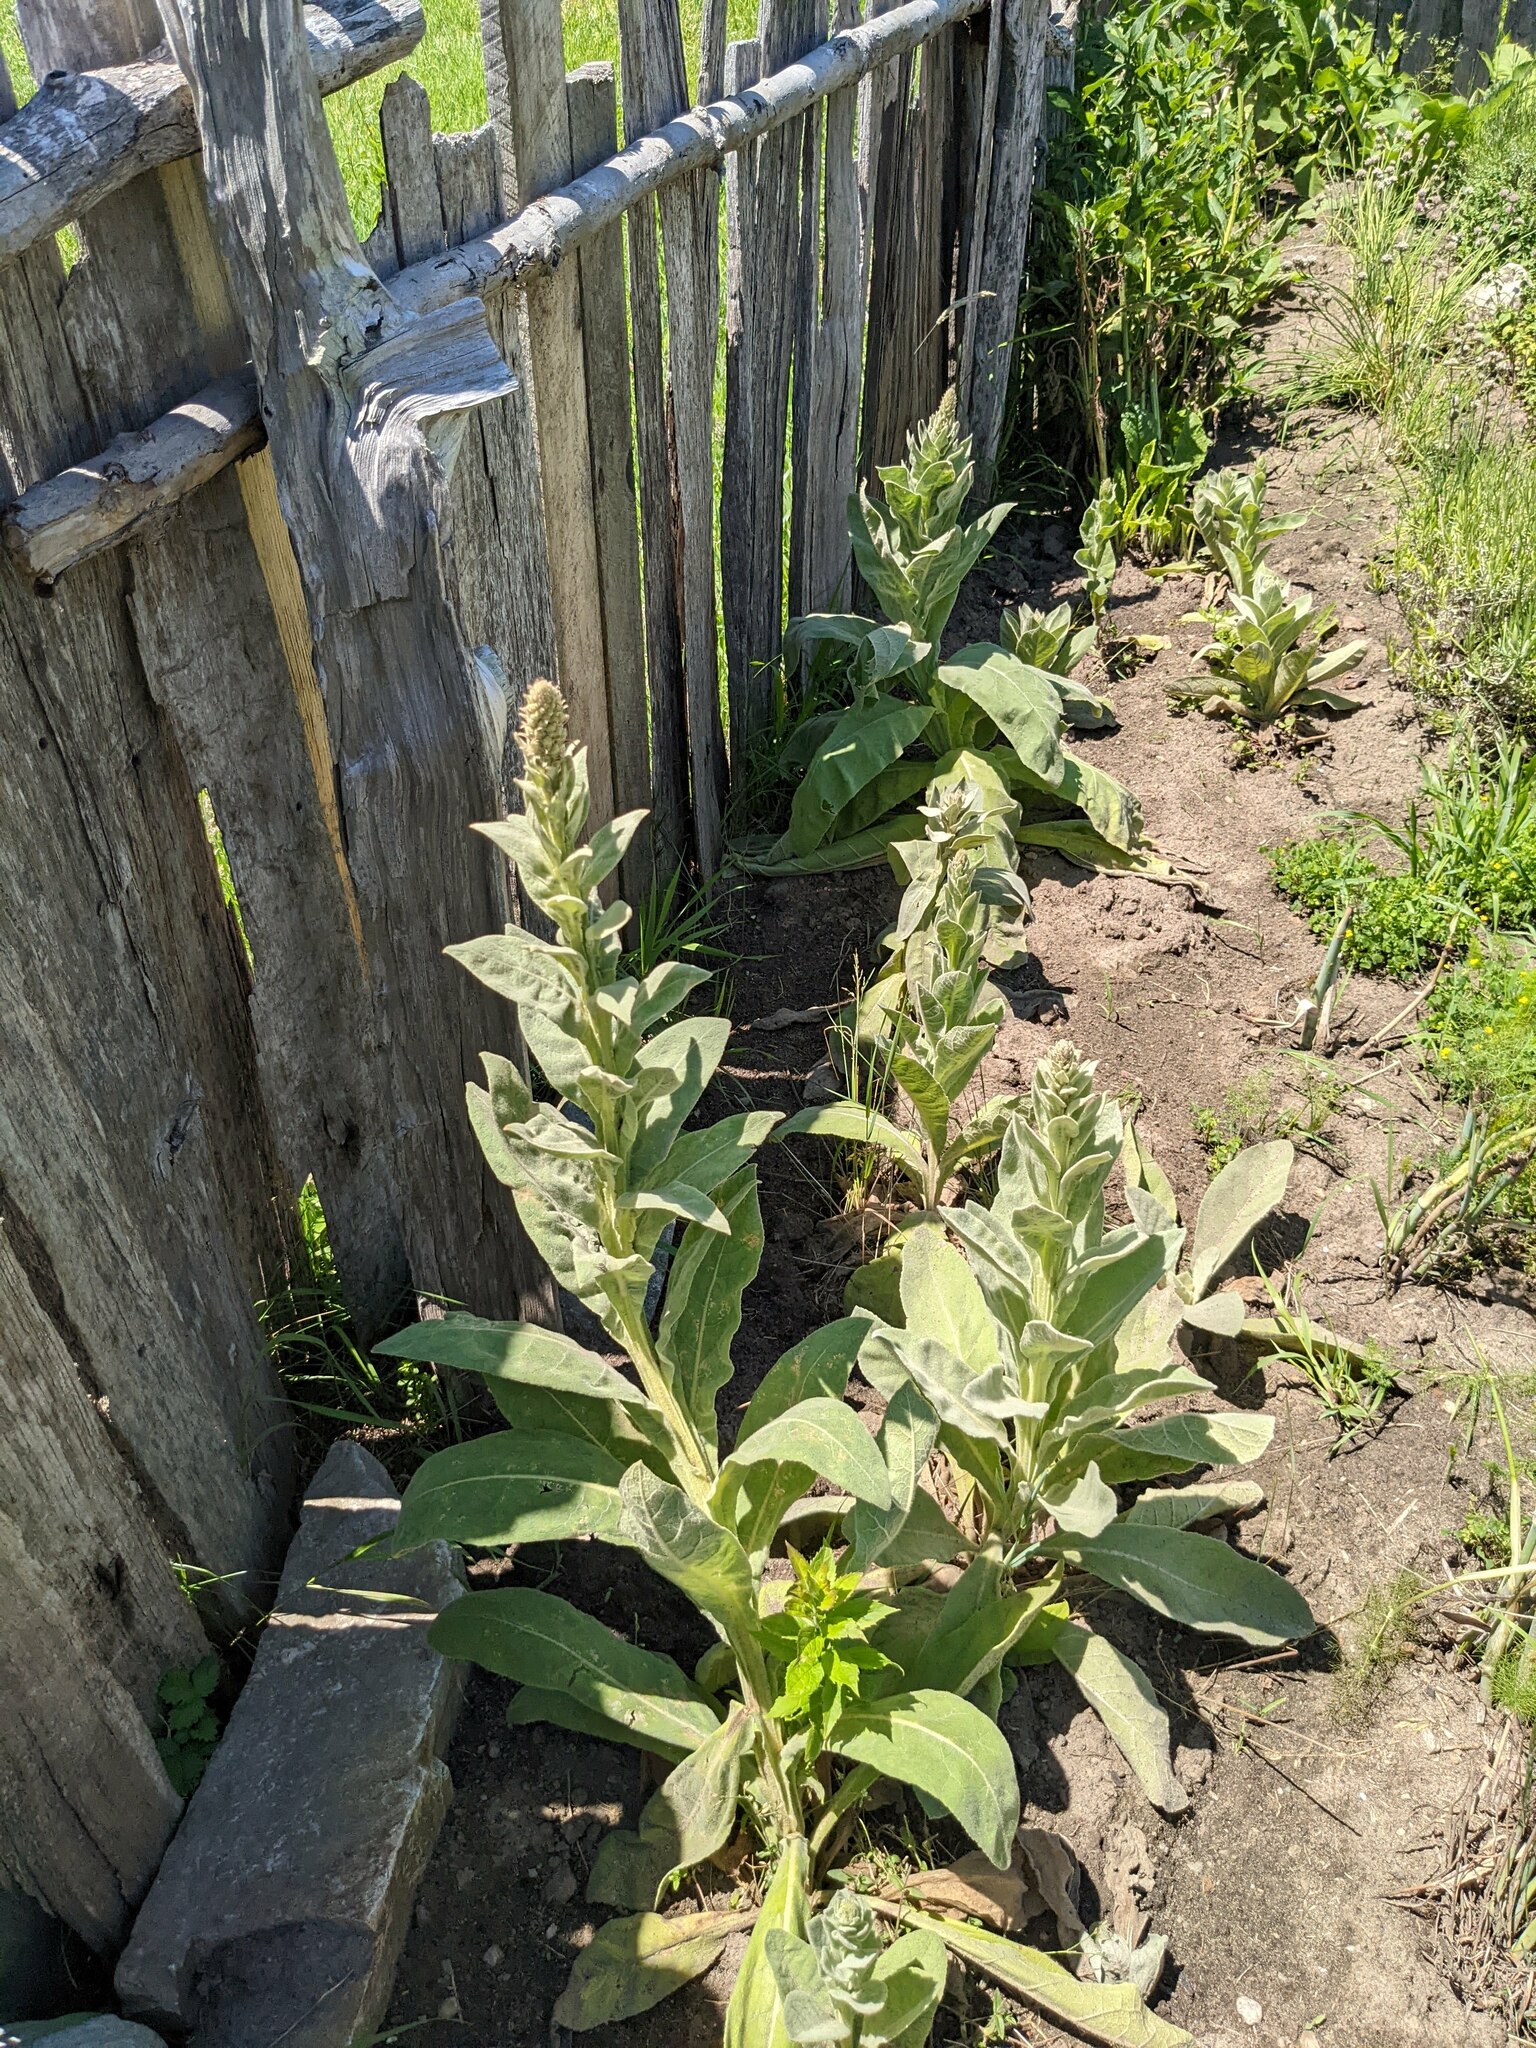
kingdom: Plantae
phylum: Tracheophyta
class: Magnoliopsida
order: Lamiales
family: Scrophulariaceae
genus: Verbascum
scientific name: Verbascum thapsus
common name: Common mullein
